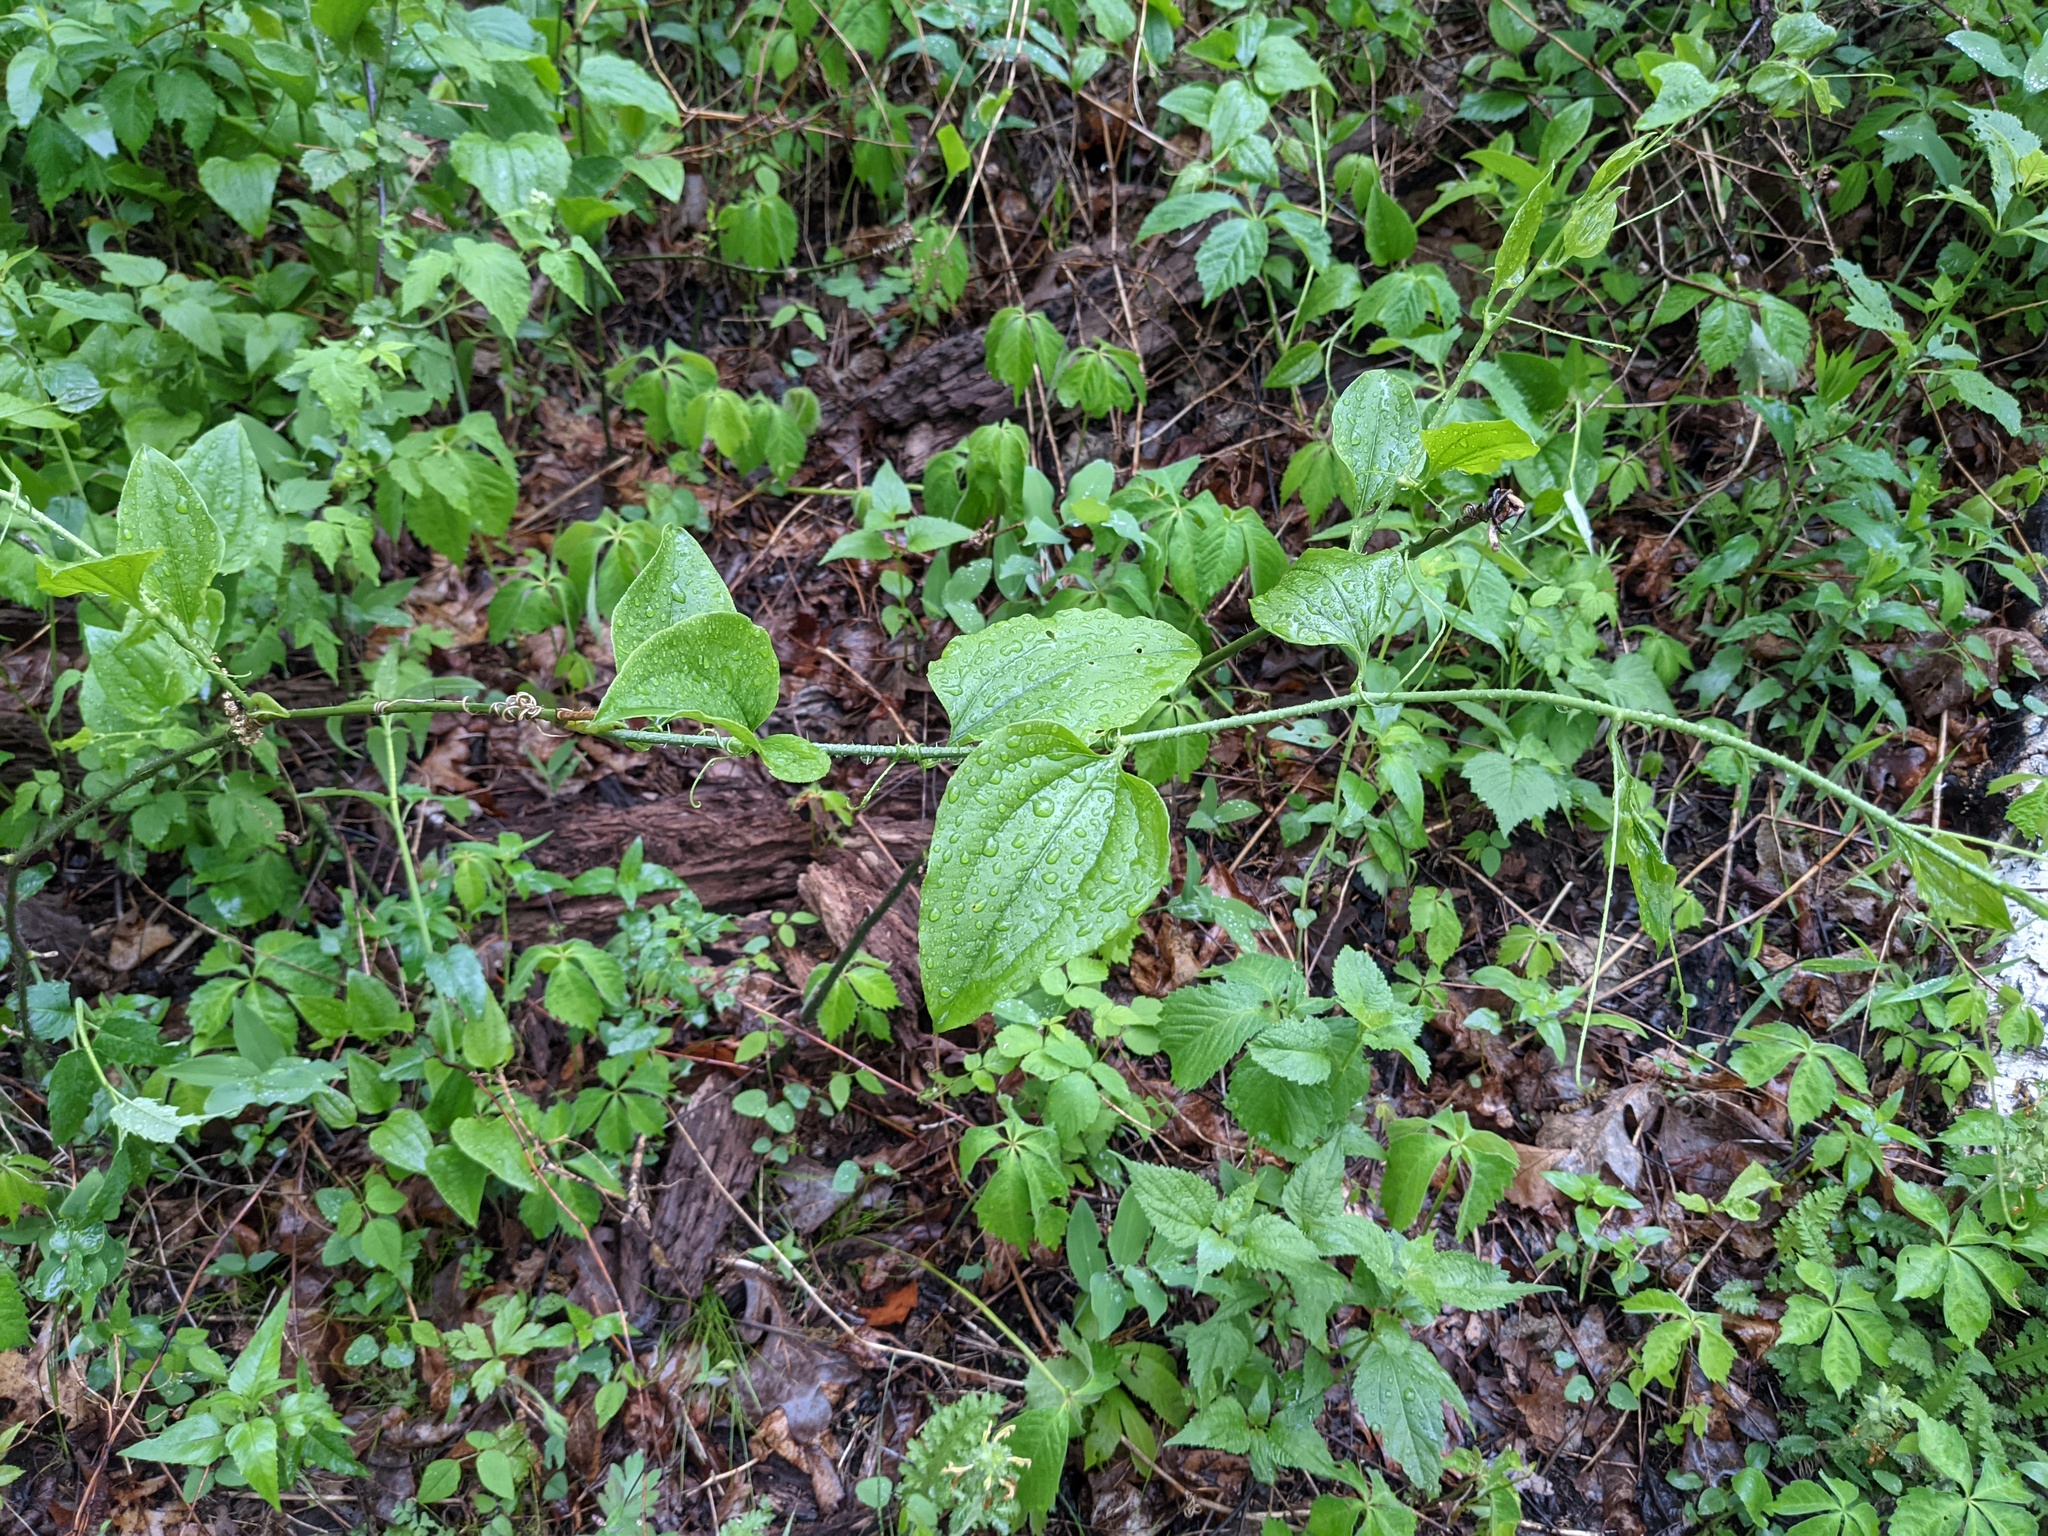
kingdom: Plantae
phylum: Tracheophyta
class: Liliopsida
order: Liliales
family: Smilacaceae
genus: Smilax
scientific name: Smilax tamnoides
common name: Hellfetter
